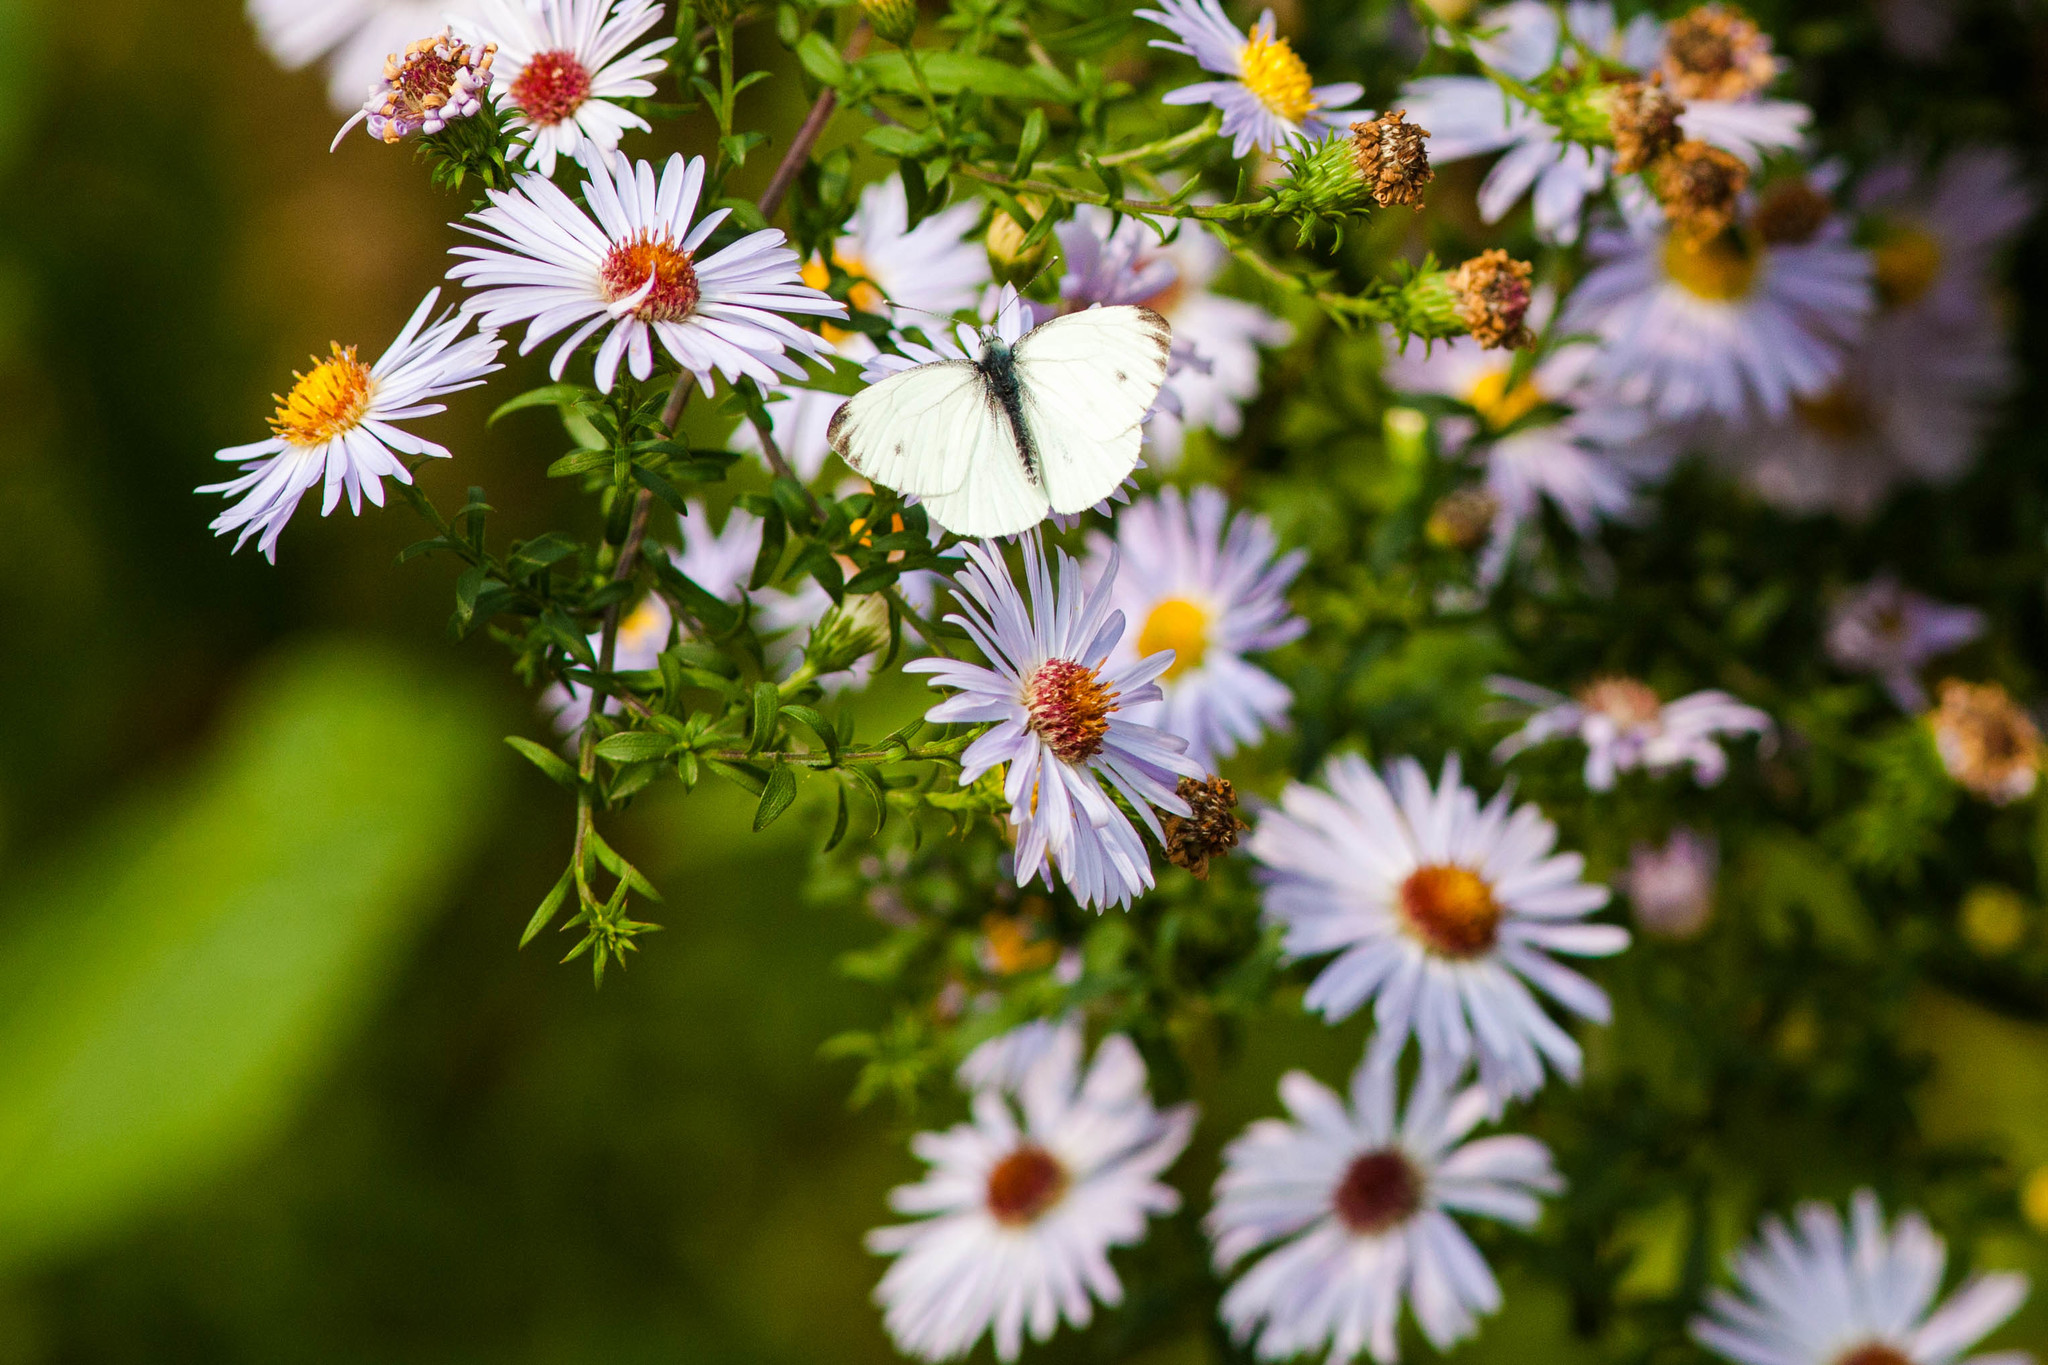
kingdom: Animalia
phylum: Arthropoda
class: Insecta
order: Lepidoptera
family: Pieridae
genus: Pieris
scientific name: Pieris napi
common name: Green-veined white
